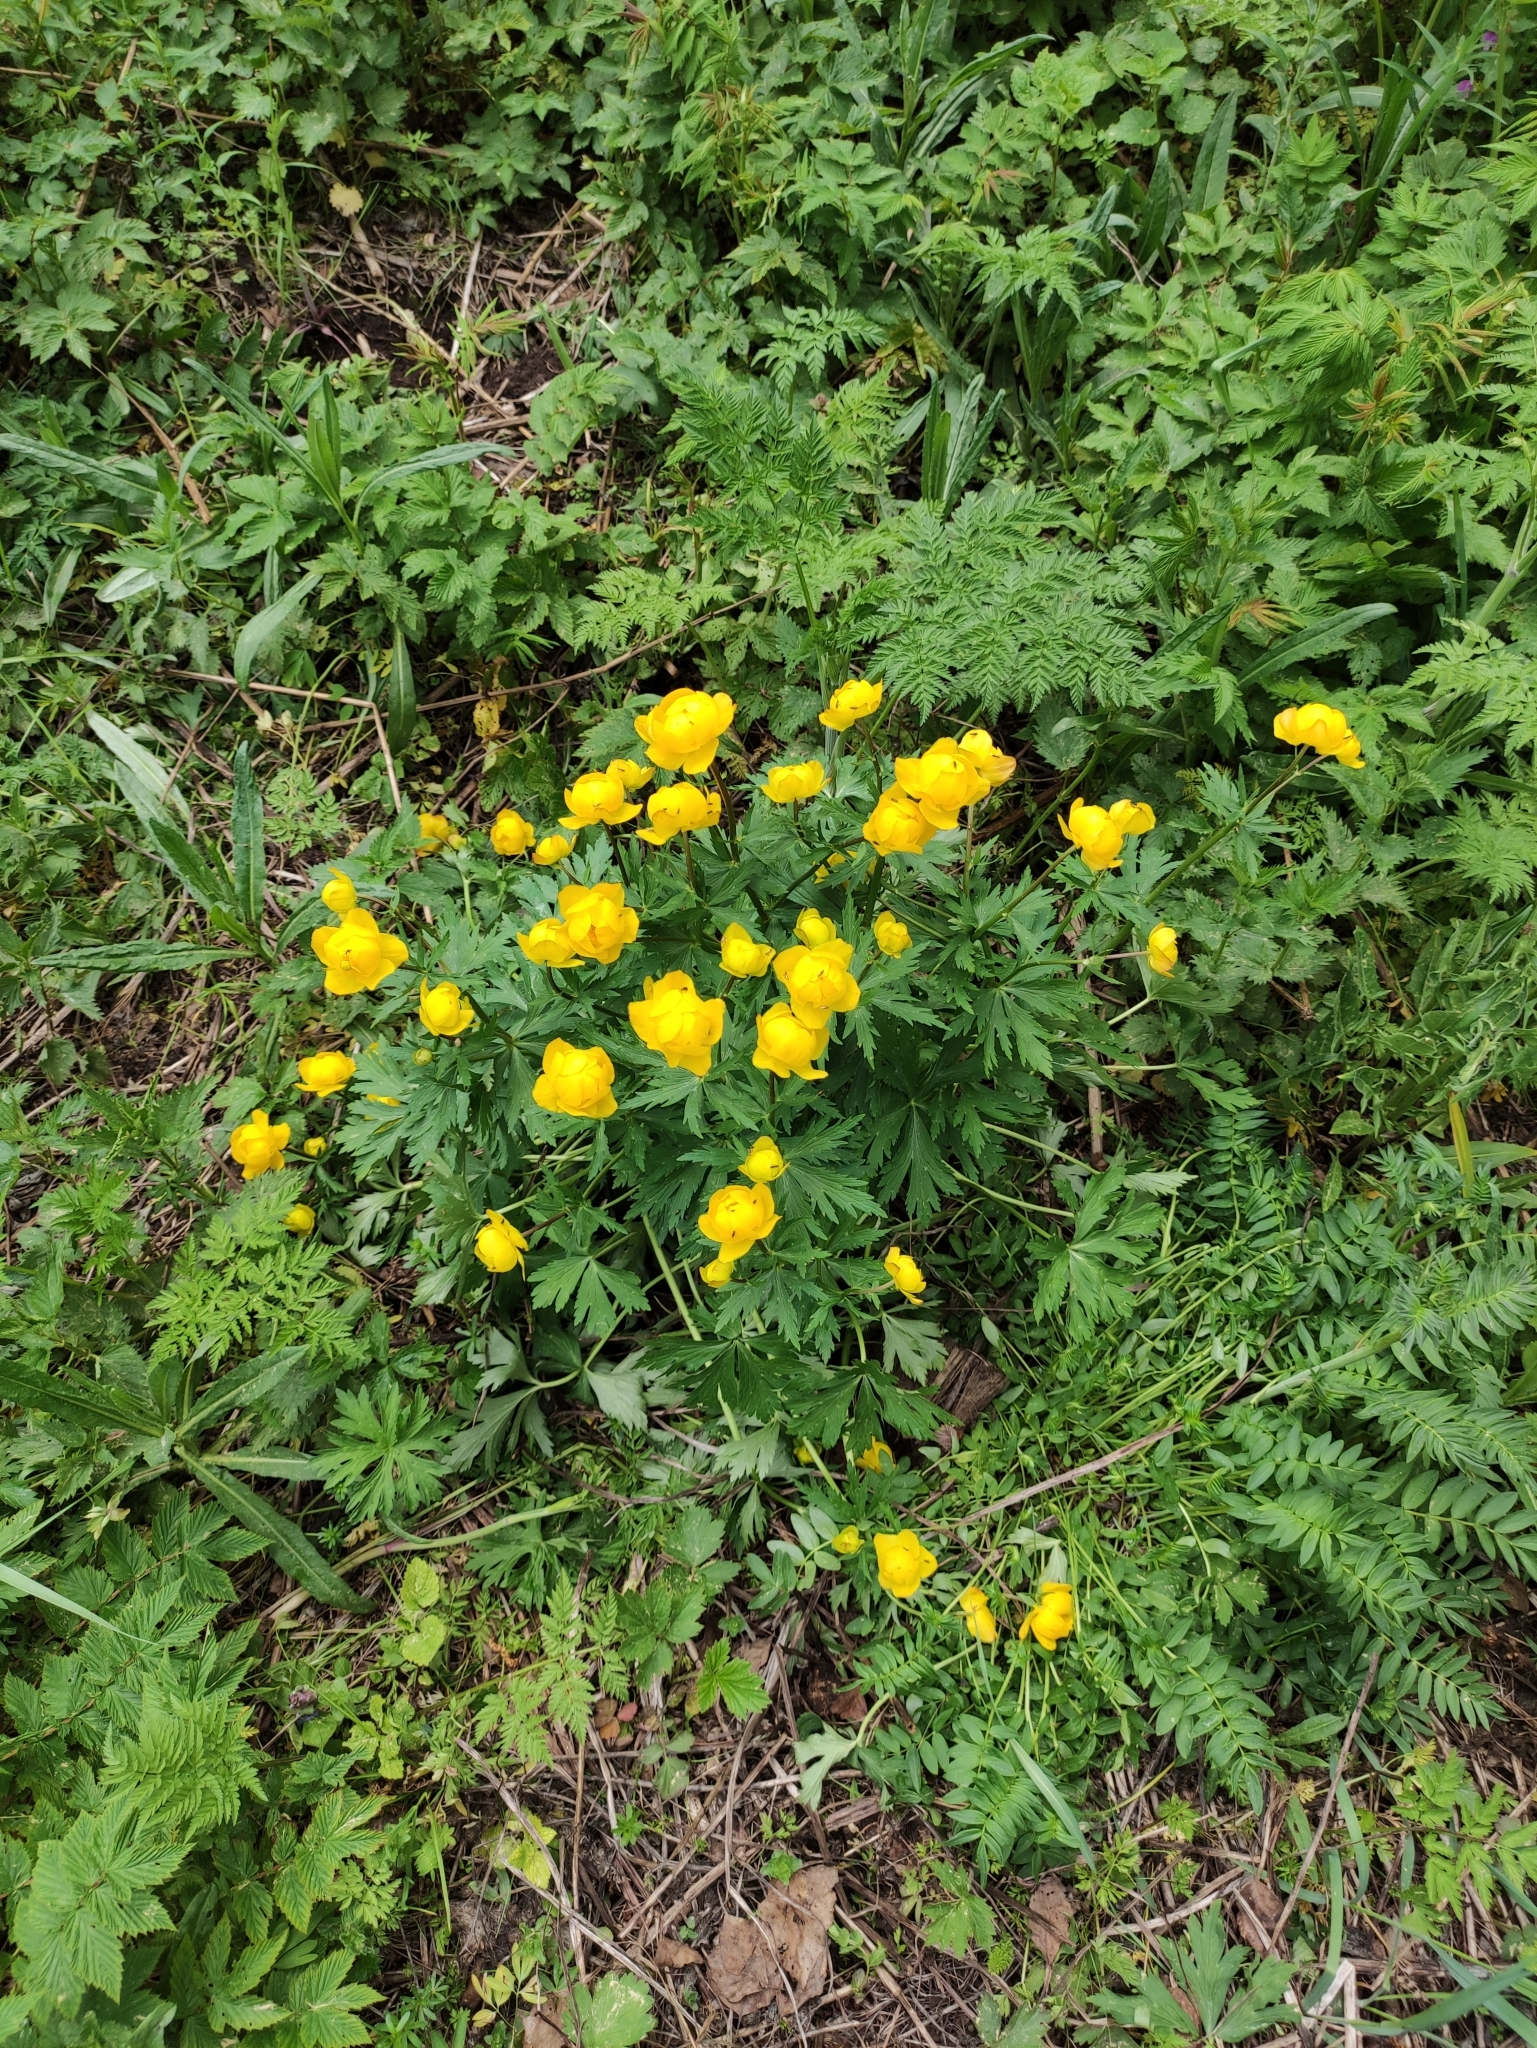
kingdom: Plantae
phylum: Tracheophyta
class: Magnoliopsida
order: Ranunculales
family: Ranunculaceae
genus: Trollius
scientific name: Trollius europaeus
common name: European globeflower
